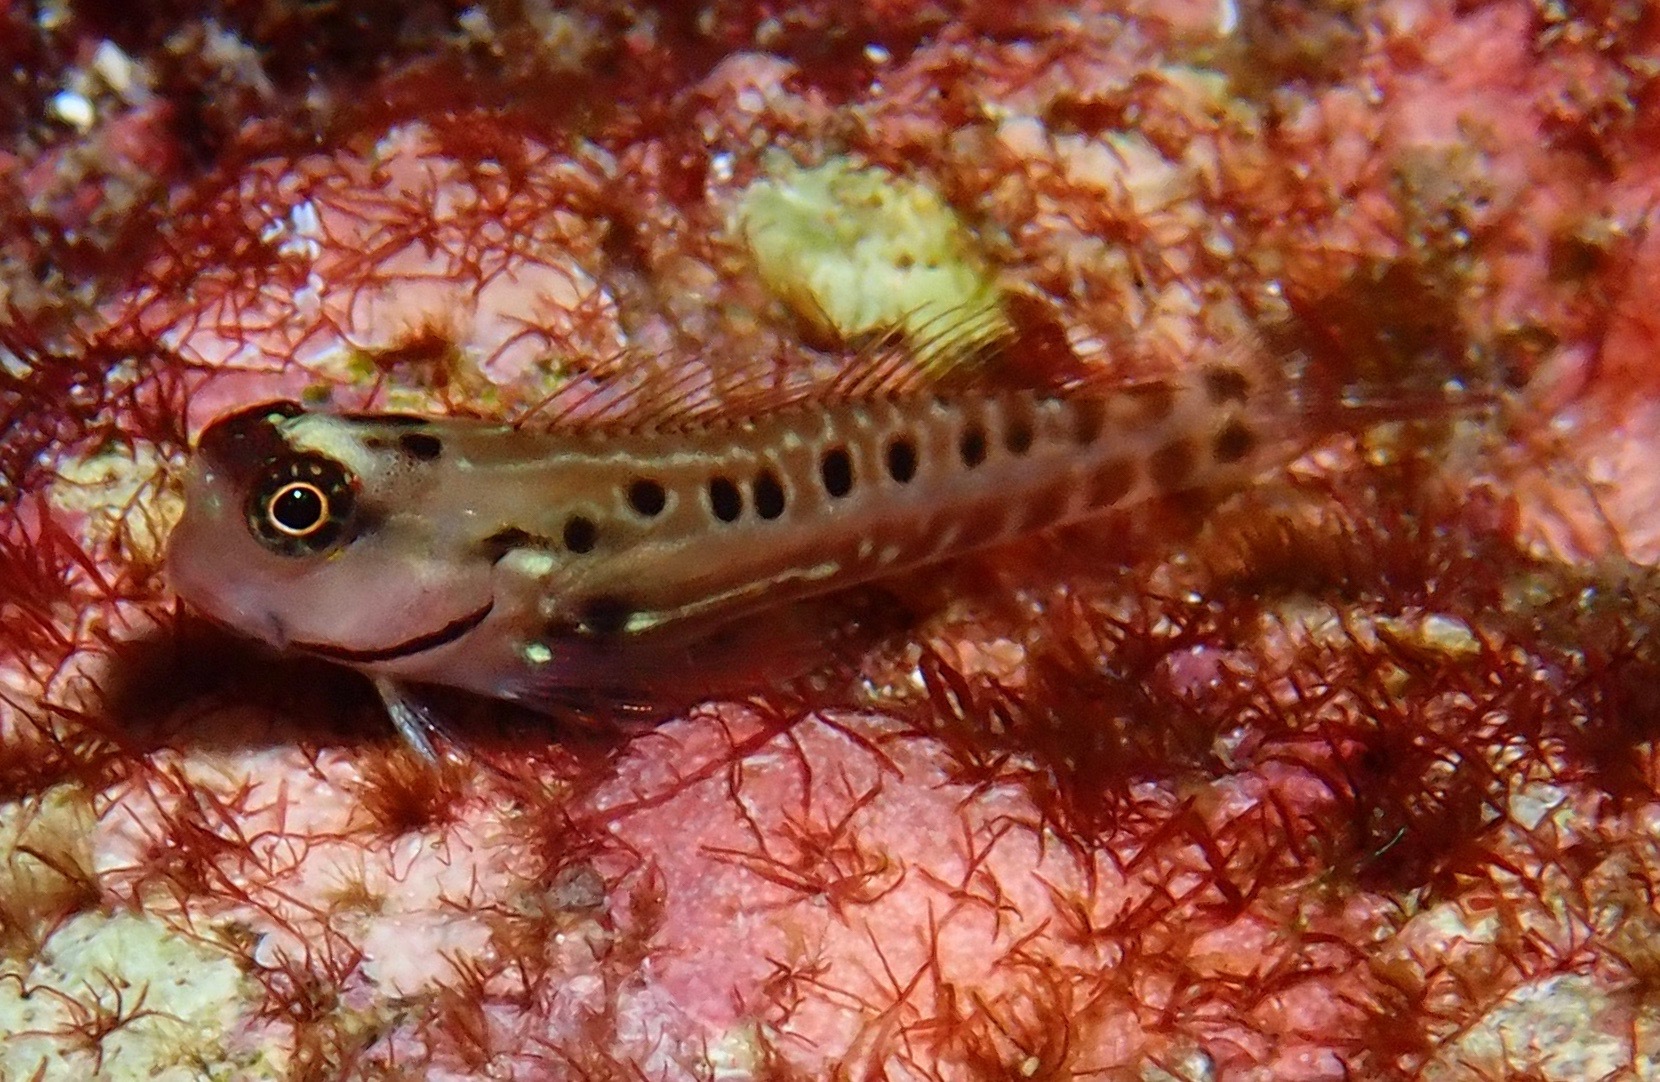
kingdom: Animalia
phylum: Chordata
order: Perciformes
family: Blenniidae
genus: Ecsenius
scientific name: Ecsenius paroculus
